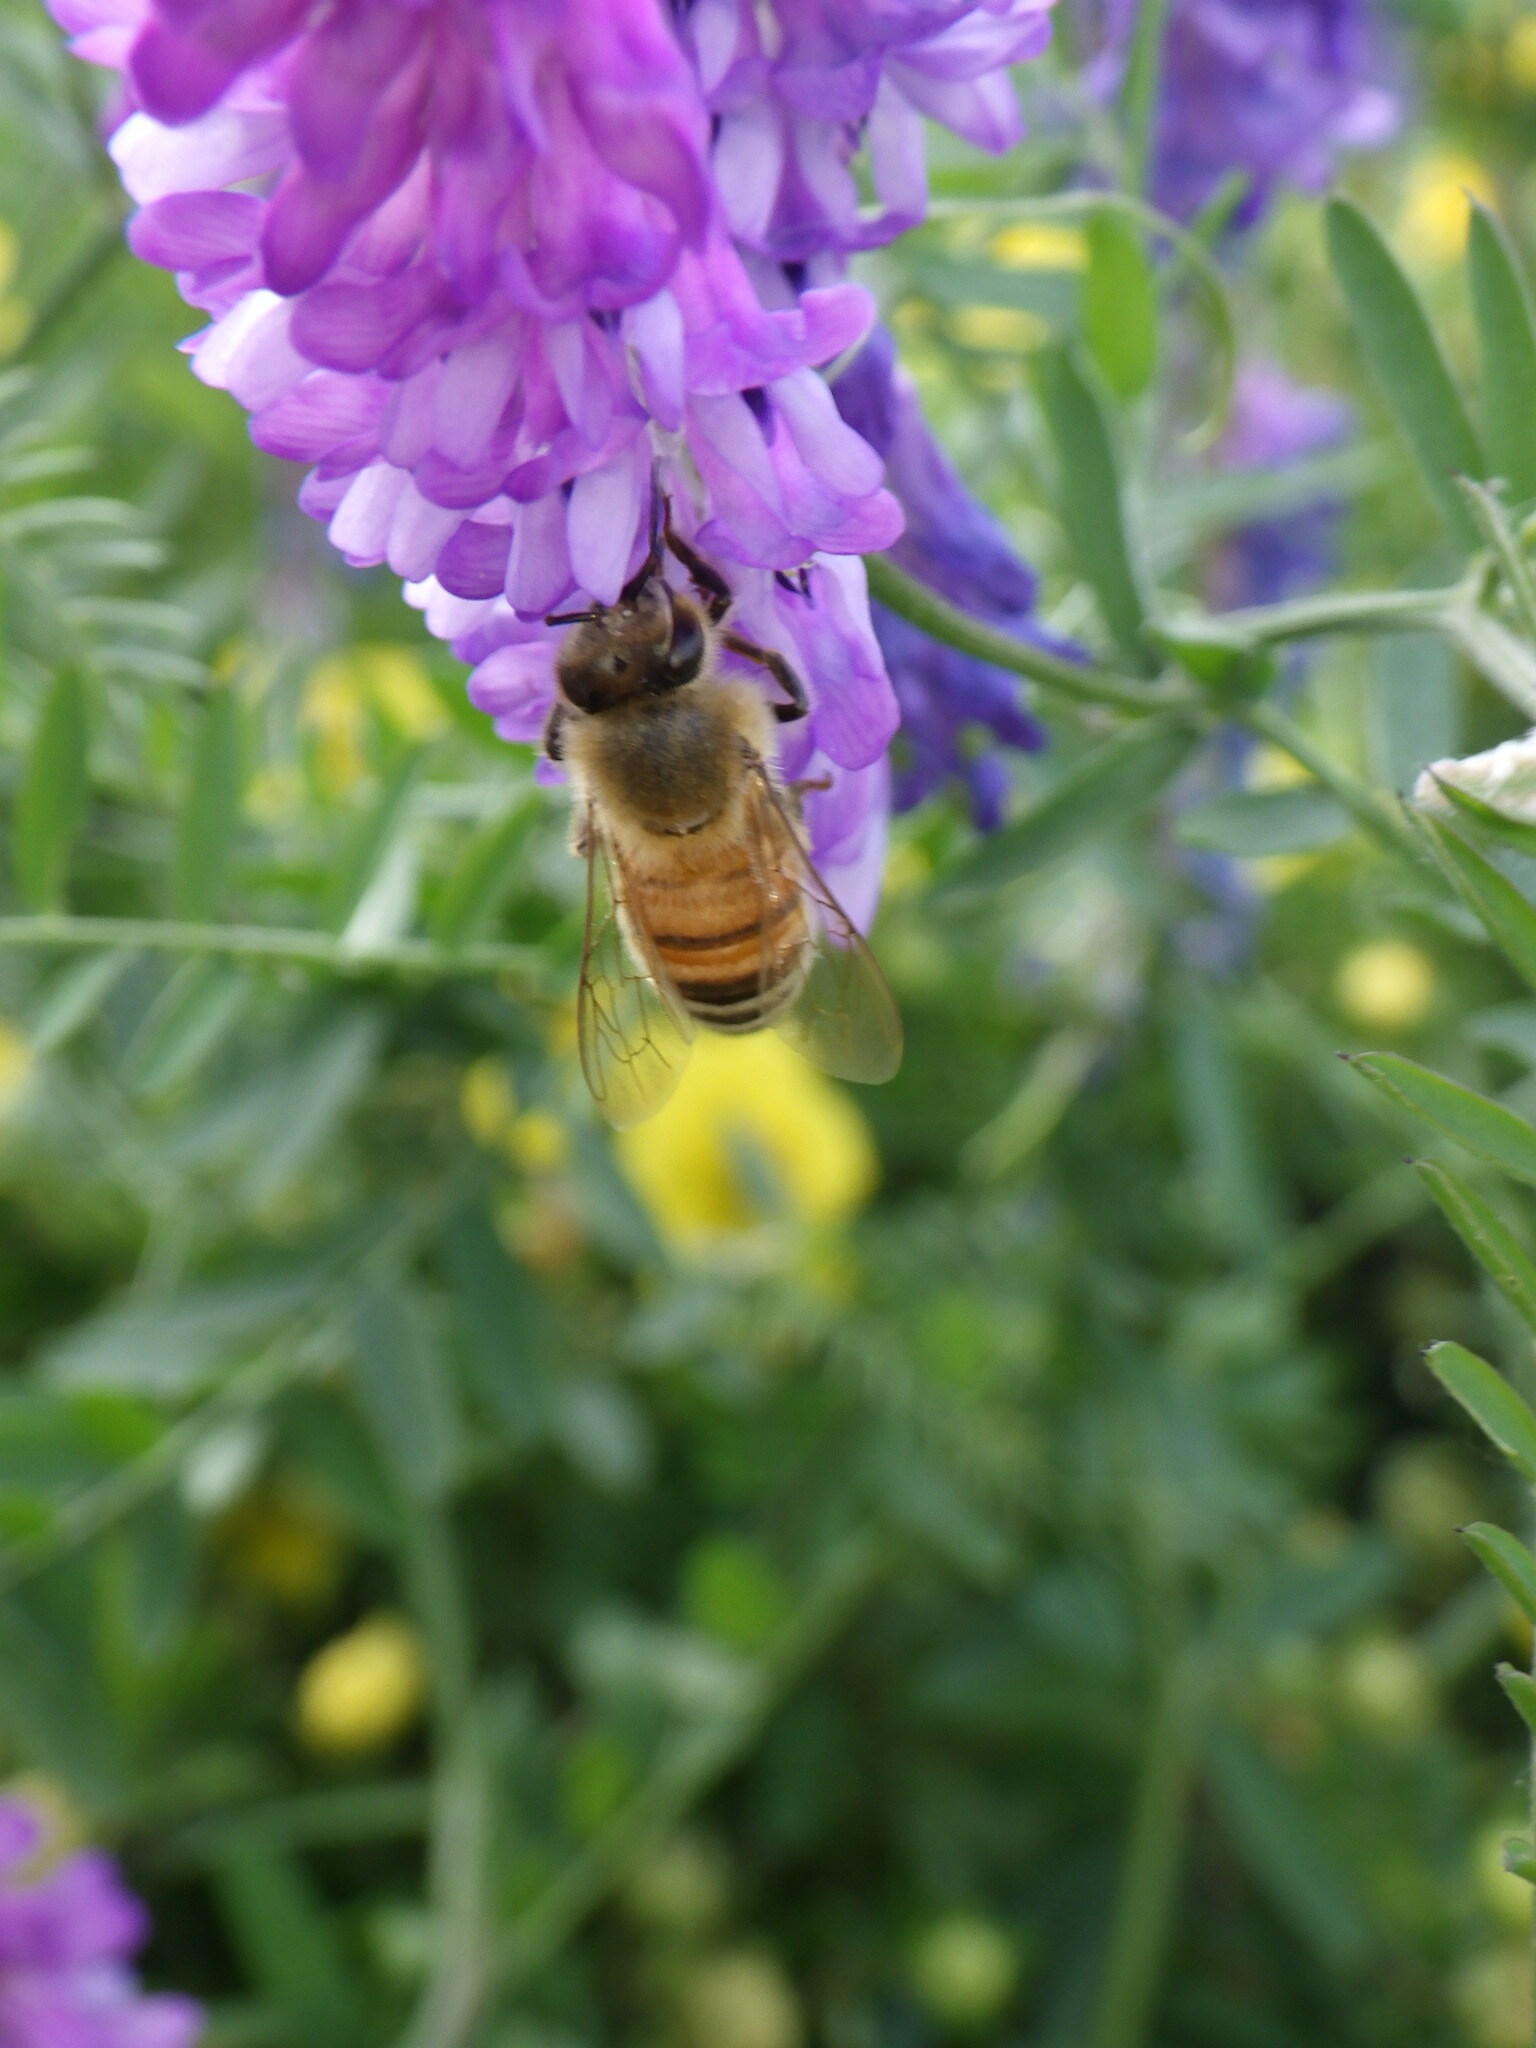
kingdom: Animalia
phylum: Arthropoda
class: Insecta
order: Hymenoptera
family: Apidae
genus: Apis
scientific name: Apis mellifera
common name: Honey bee
